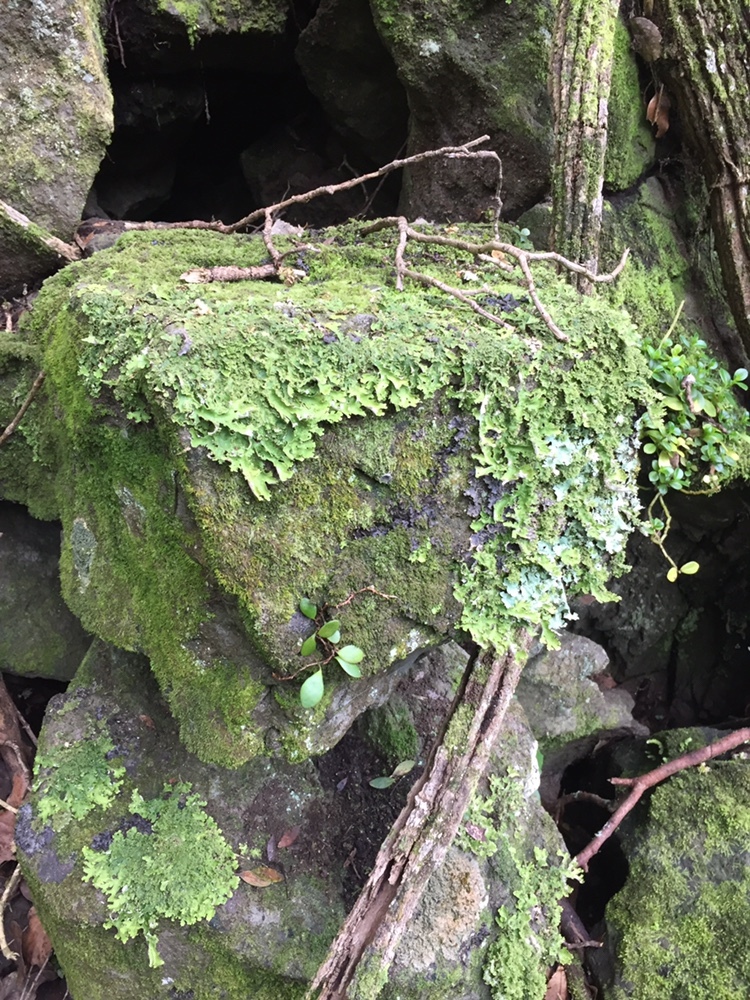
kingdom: Fungi
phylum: Ascomycota
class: Lecanoromycetes
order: Peltigerales
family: Lobariaceae
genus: Pseudocyphellaria
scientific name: Pseudocyphellaria multifida
